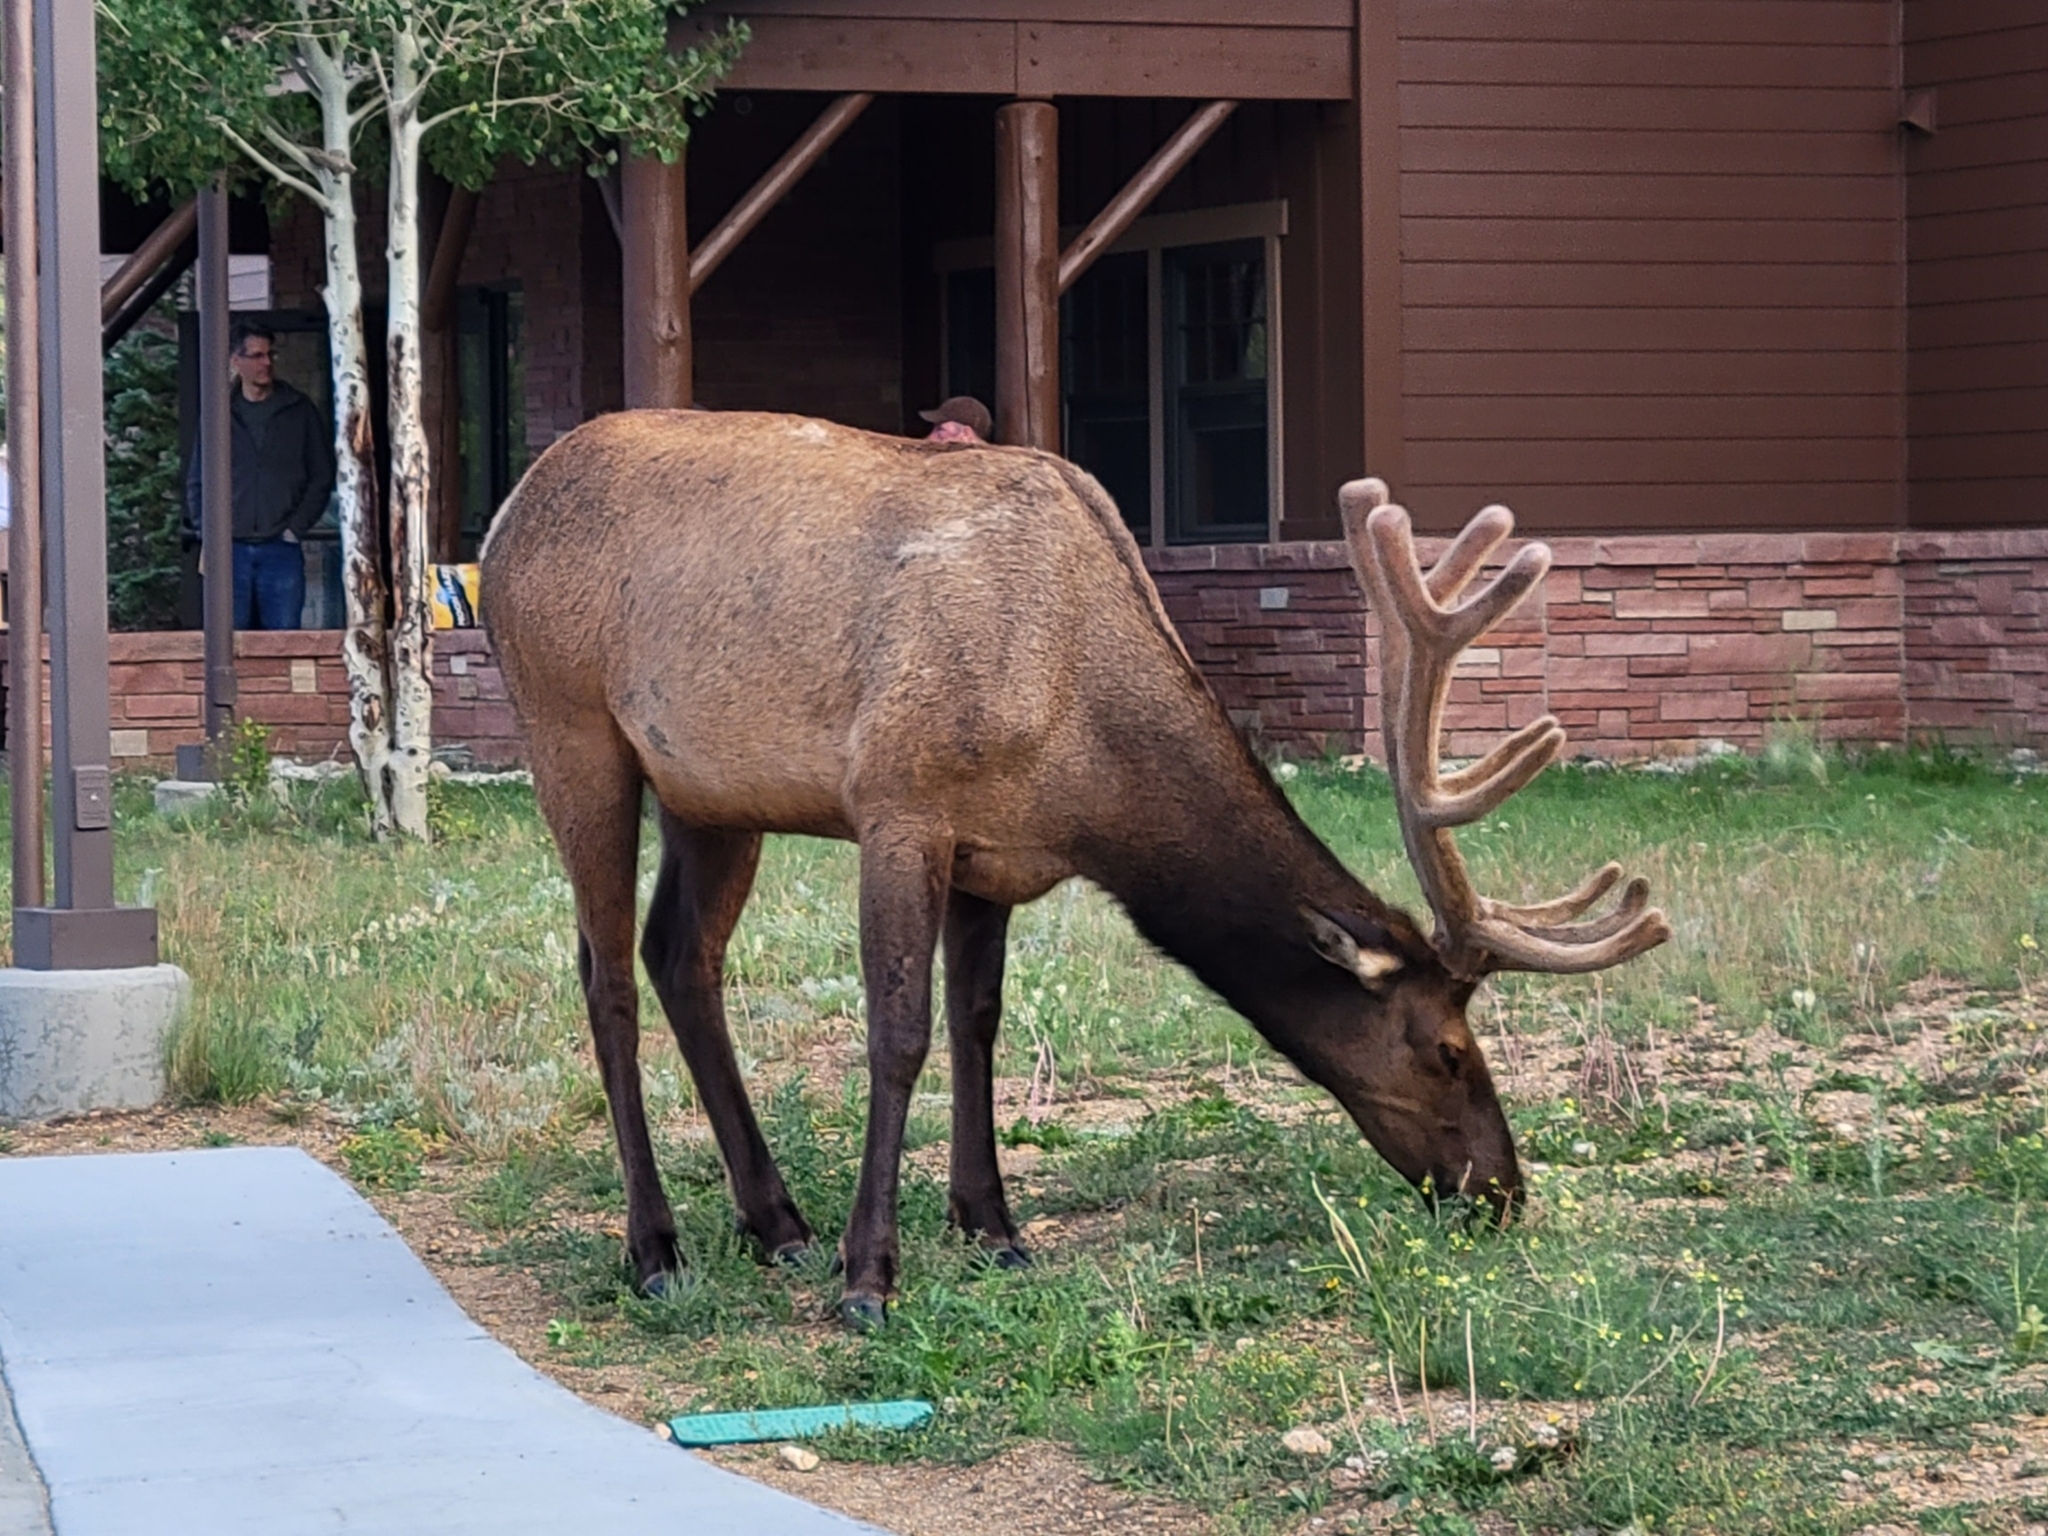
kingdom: Animalia
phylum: Chordata
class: Mammalia
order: Artiodactyla
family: Cervidae
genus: Cervus
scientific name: Cervus elaphus
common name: Red deer
